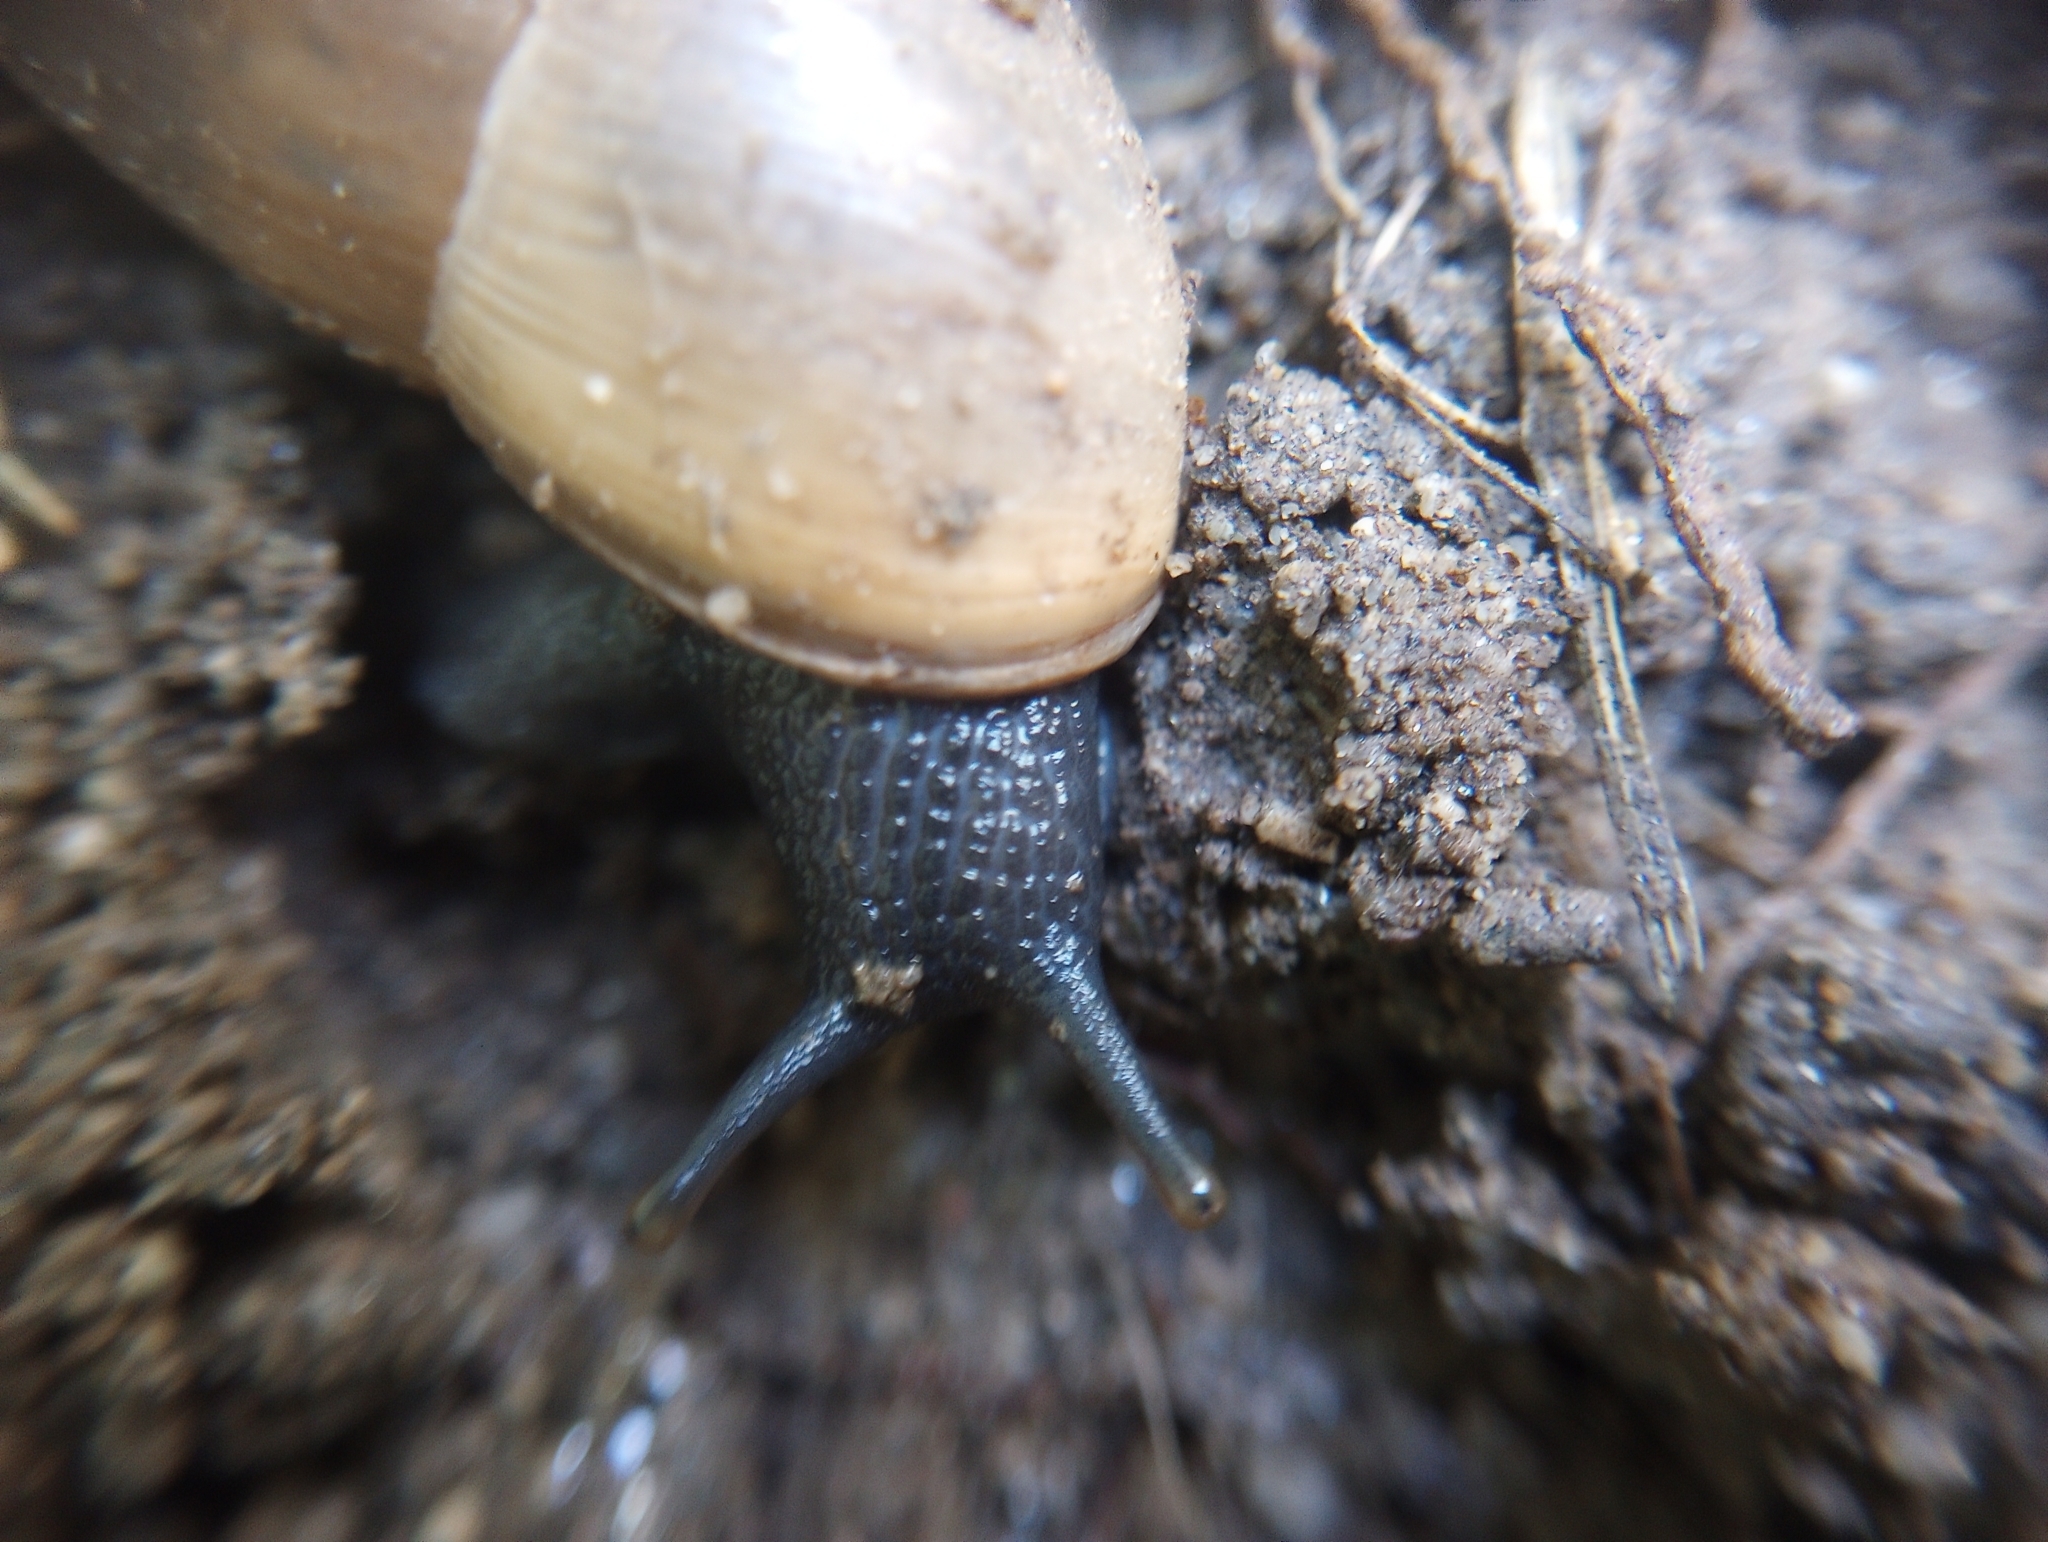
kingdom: Animalia
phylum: Mollusca
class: Gastropoda
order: Stylommatophora
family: Achatinidae
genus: Rumina
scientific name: Rumina decollata
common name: Decollate snail
